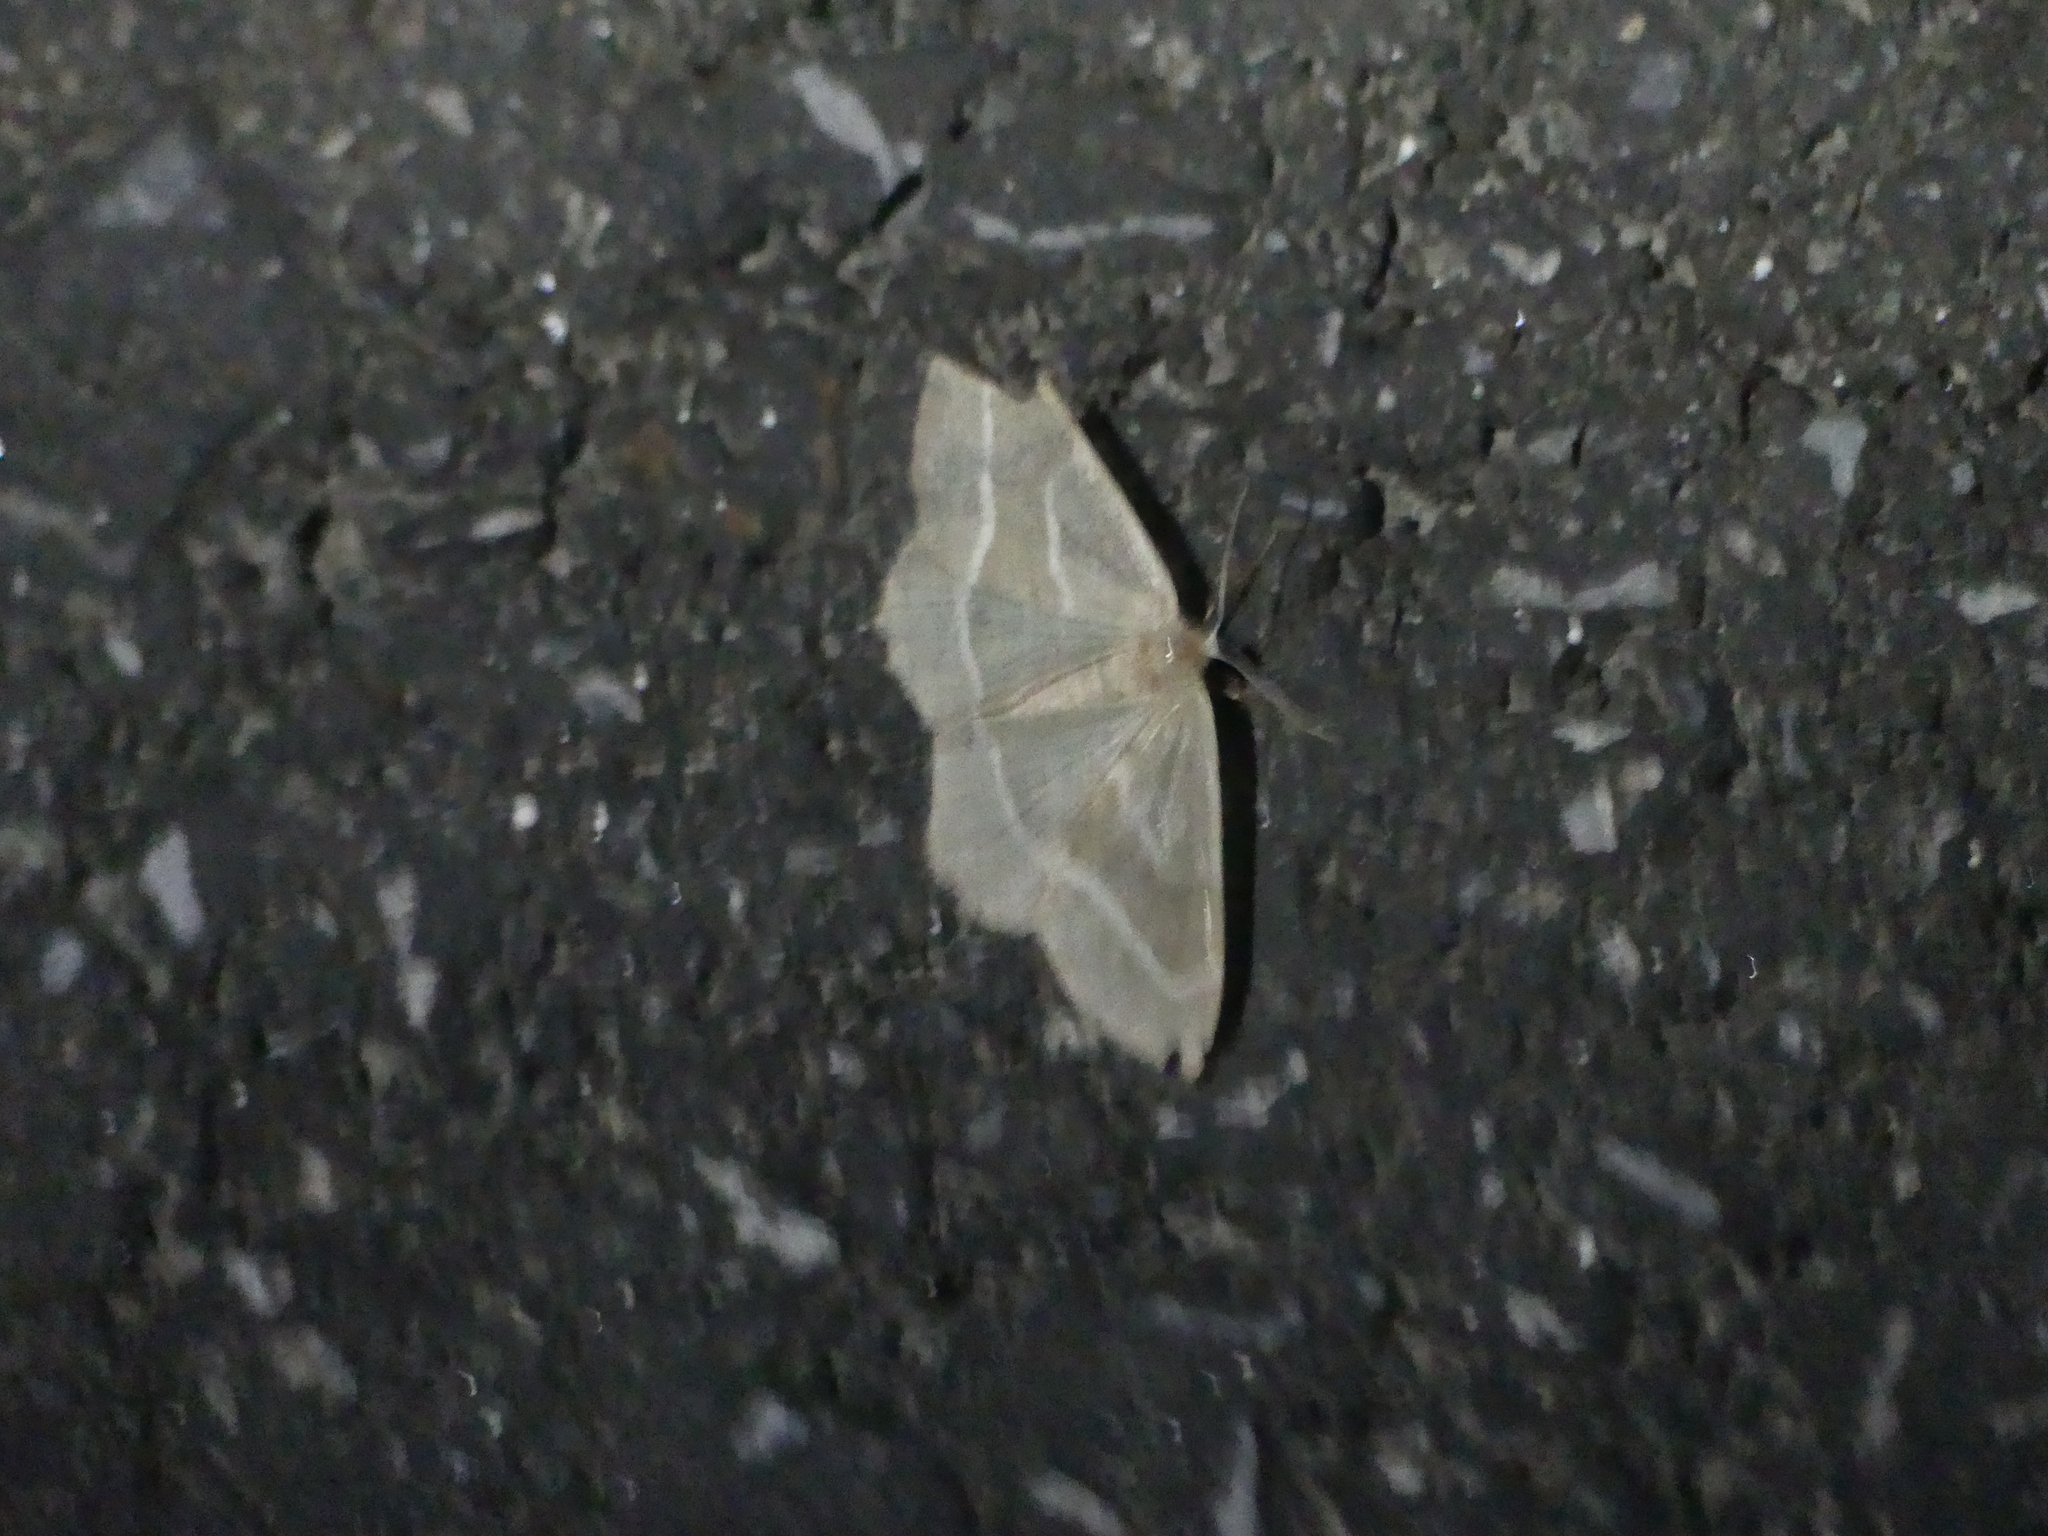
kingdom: Animalia
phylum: Arthropoda
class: Insecta
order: Lepidoptera
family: Geometridae
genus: Hylaea
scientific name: Hylaea fasciaria
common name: Barred red
